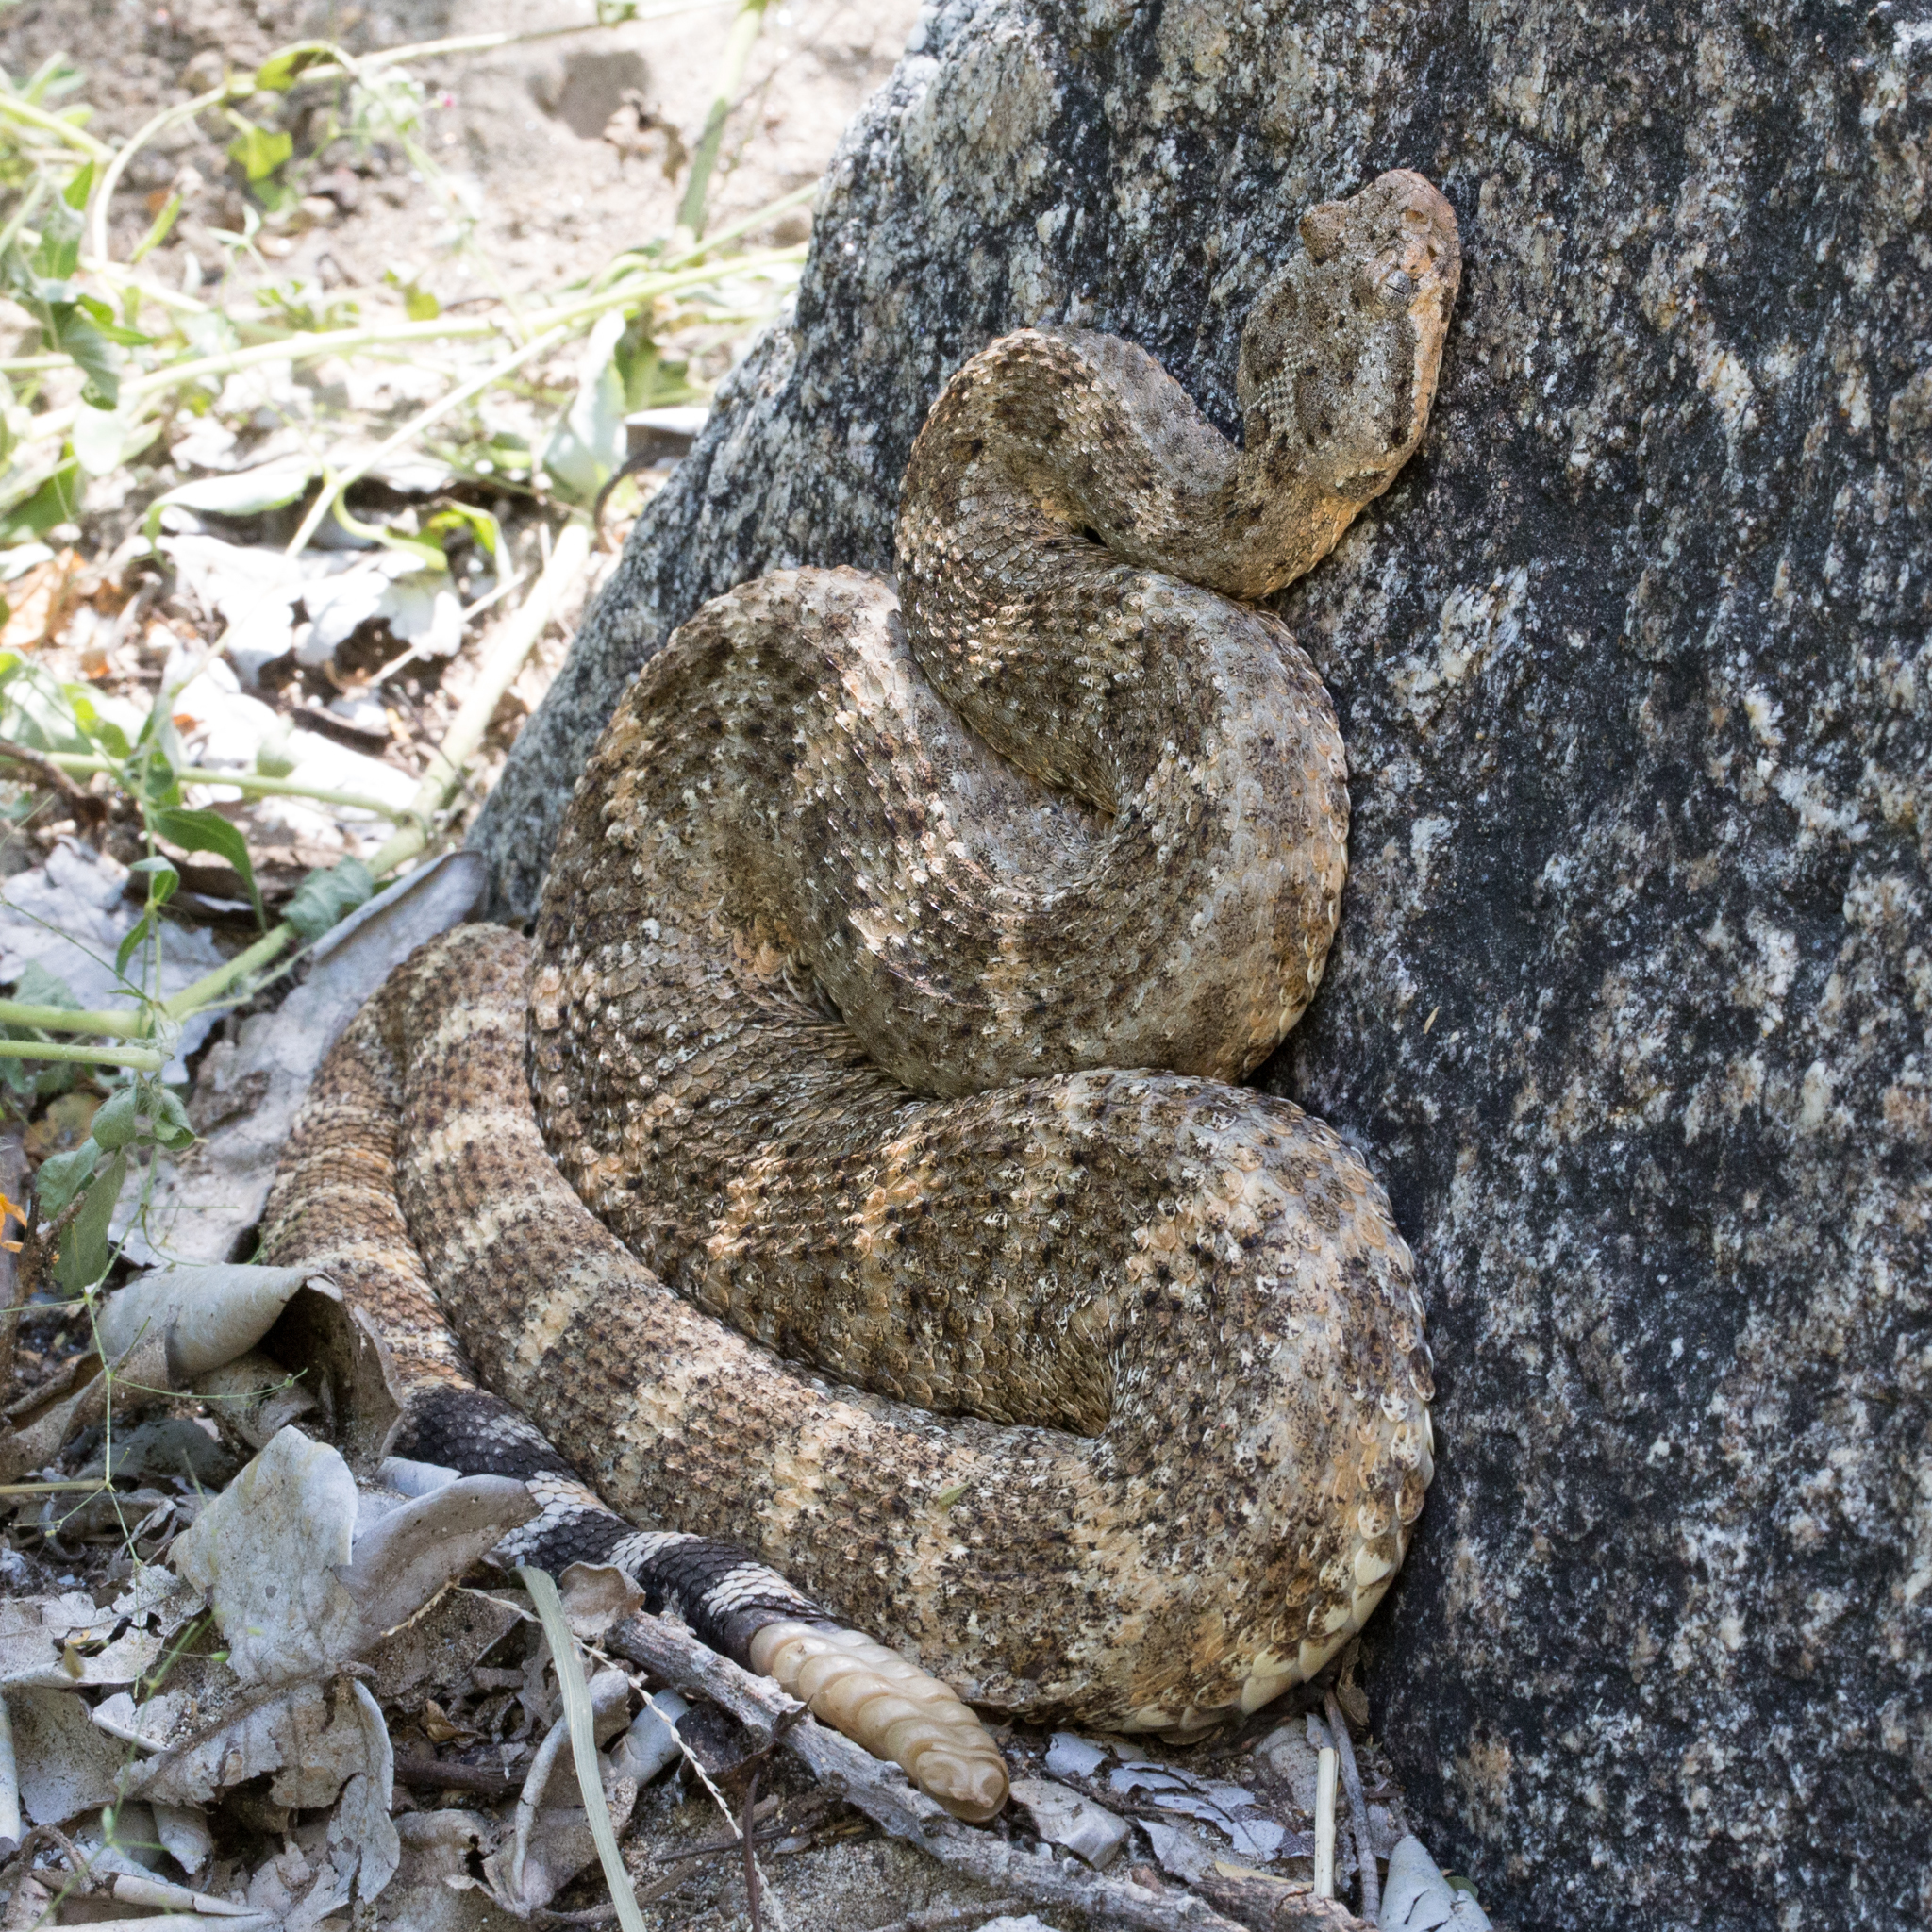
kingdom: Animalia
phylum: Chordata
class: Squamata
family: Viperidae
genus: Crotalus
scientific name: Crotalus mitchellii
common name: Speckled rattlesnake
